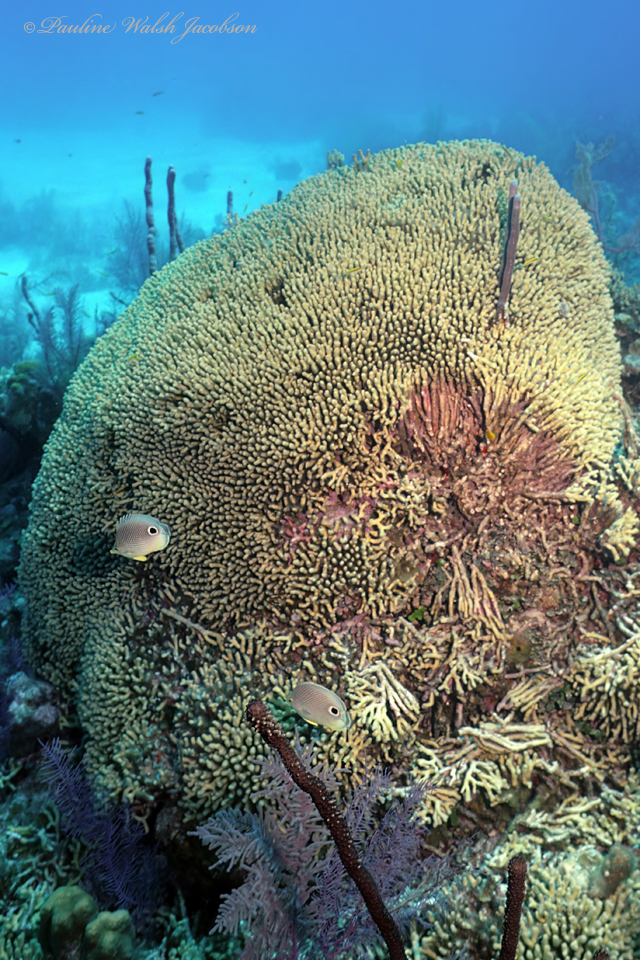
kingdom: Animalia
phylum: Chordata
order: Perciformes
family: Chaetodontidae
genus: Chaetodon
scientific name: Chaetodon capistratus
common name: Kete
